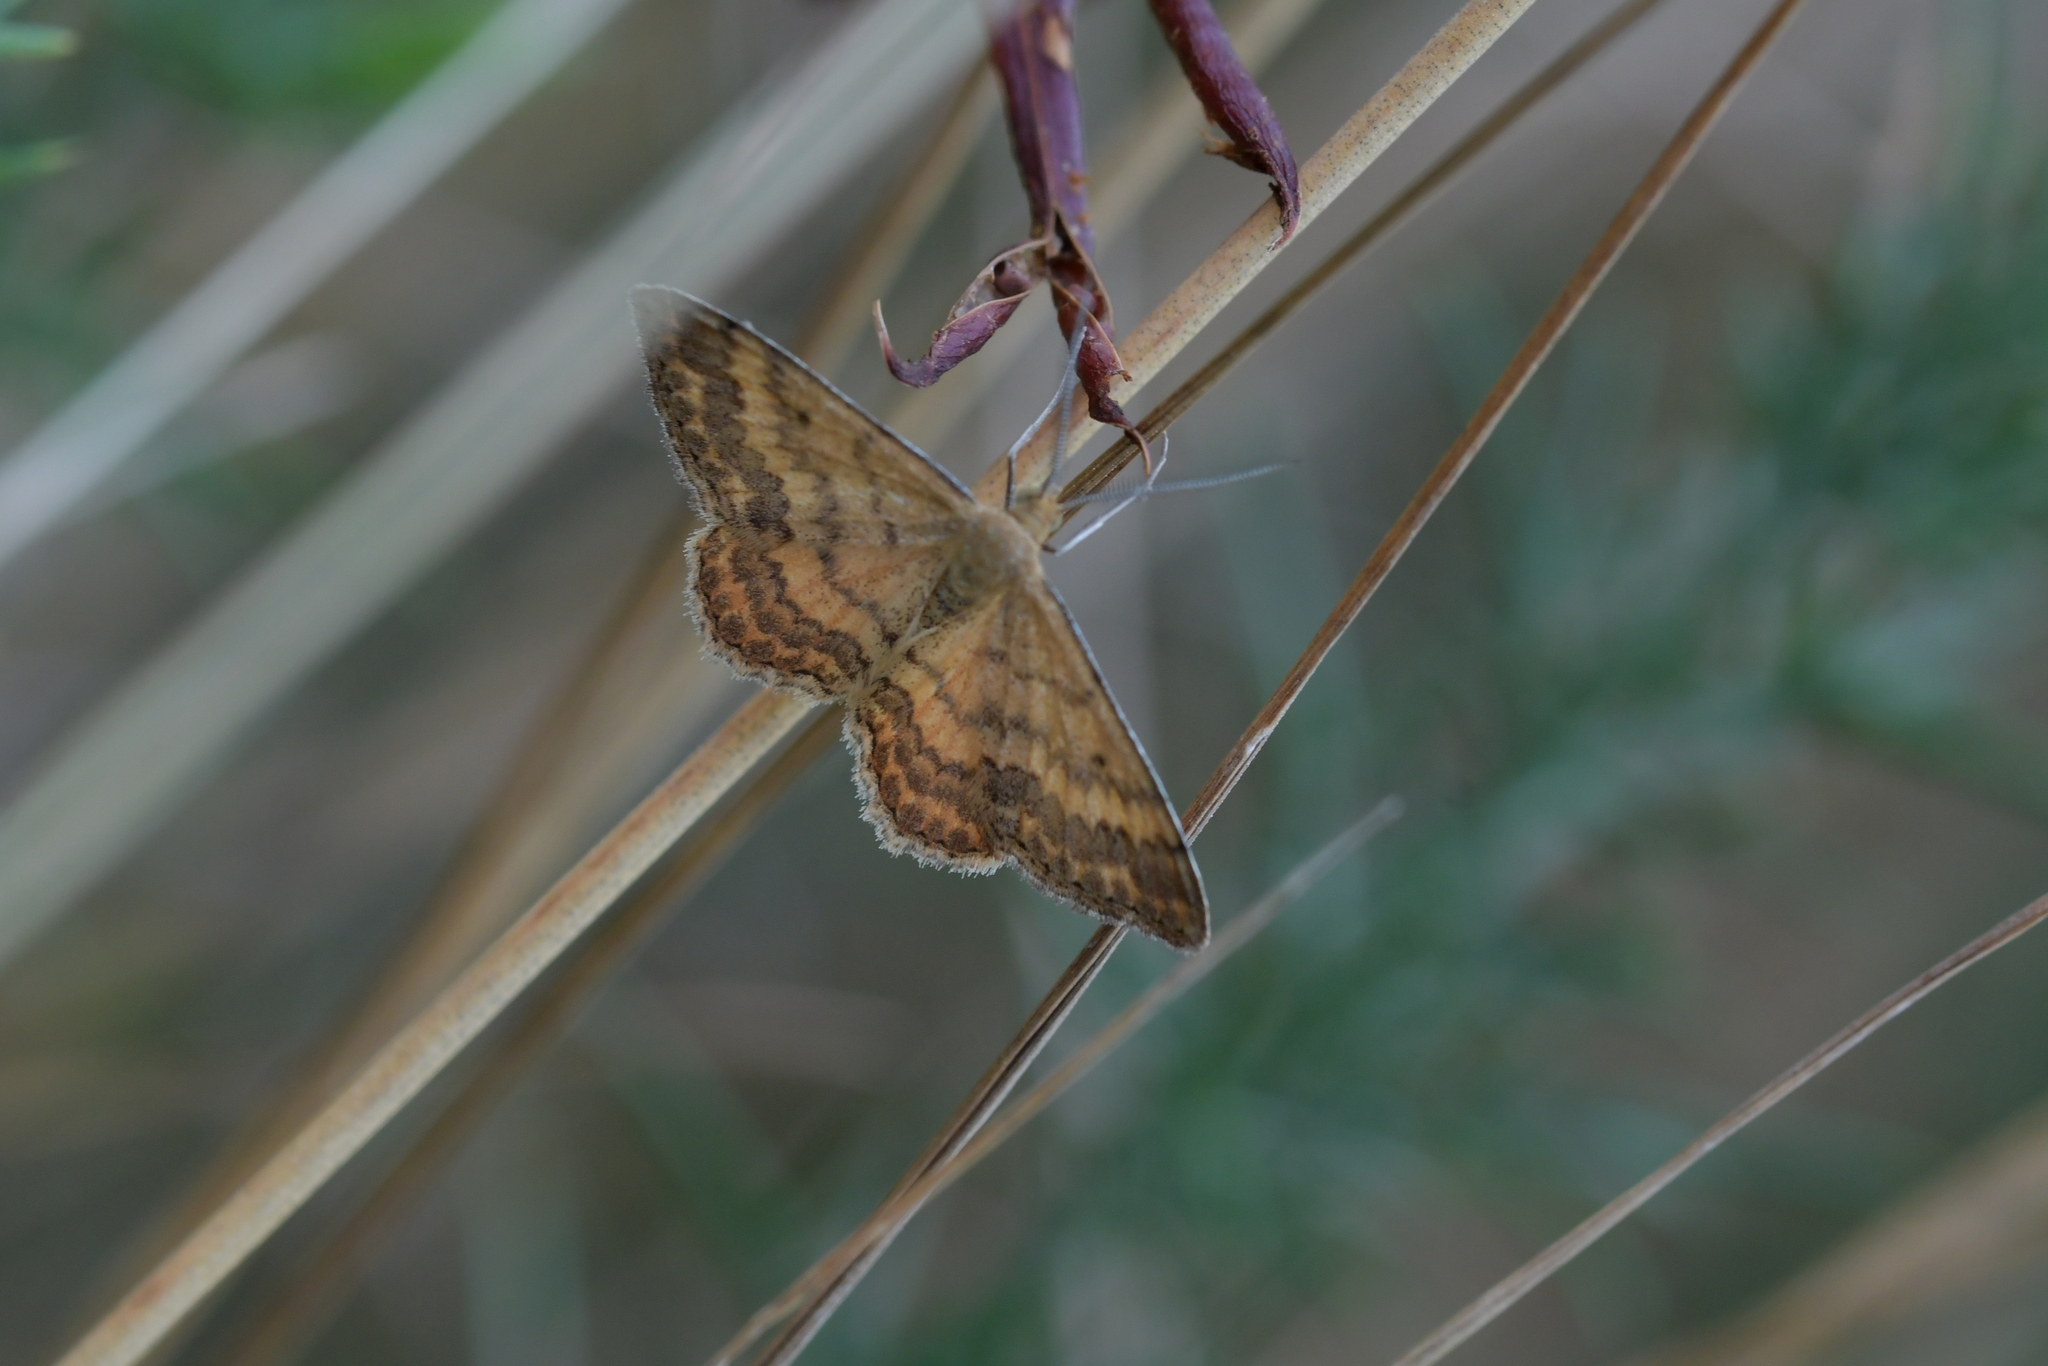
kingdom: Animalia
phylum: Arthropoda
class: Insecta
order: Lepidoptera
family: Geometridae
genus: Scopula
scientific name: Scopula rubraria
